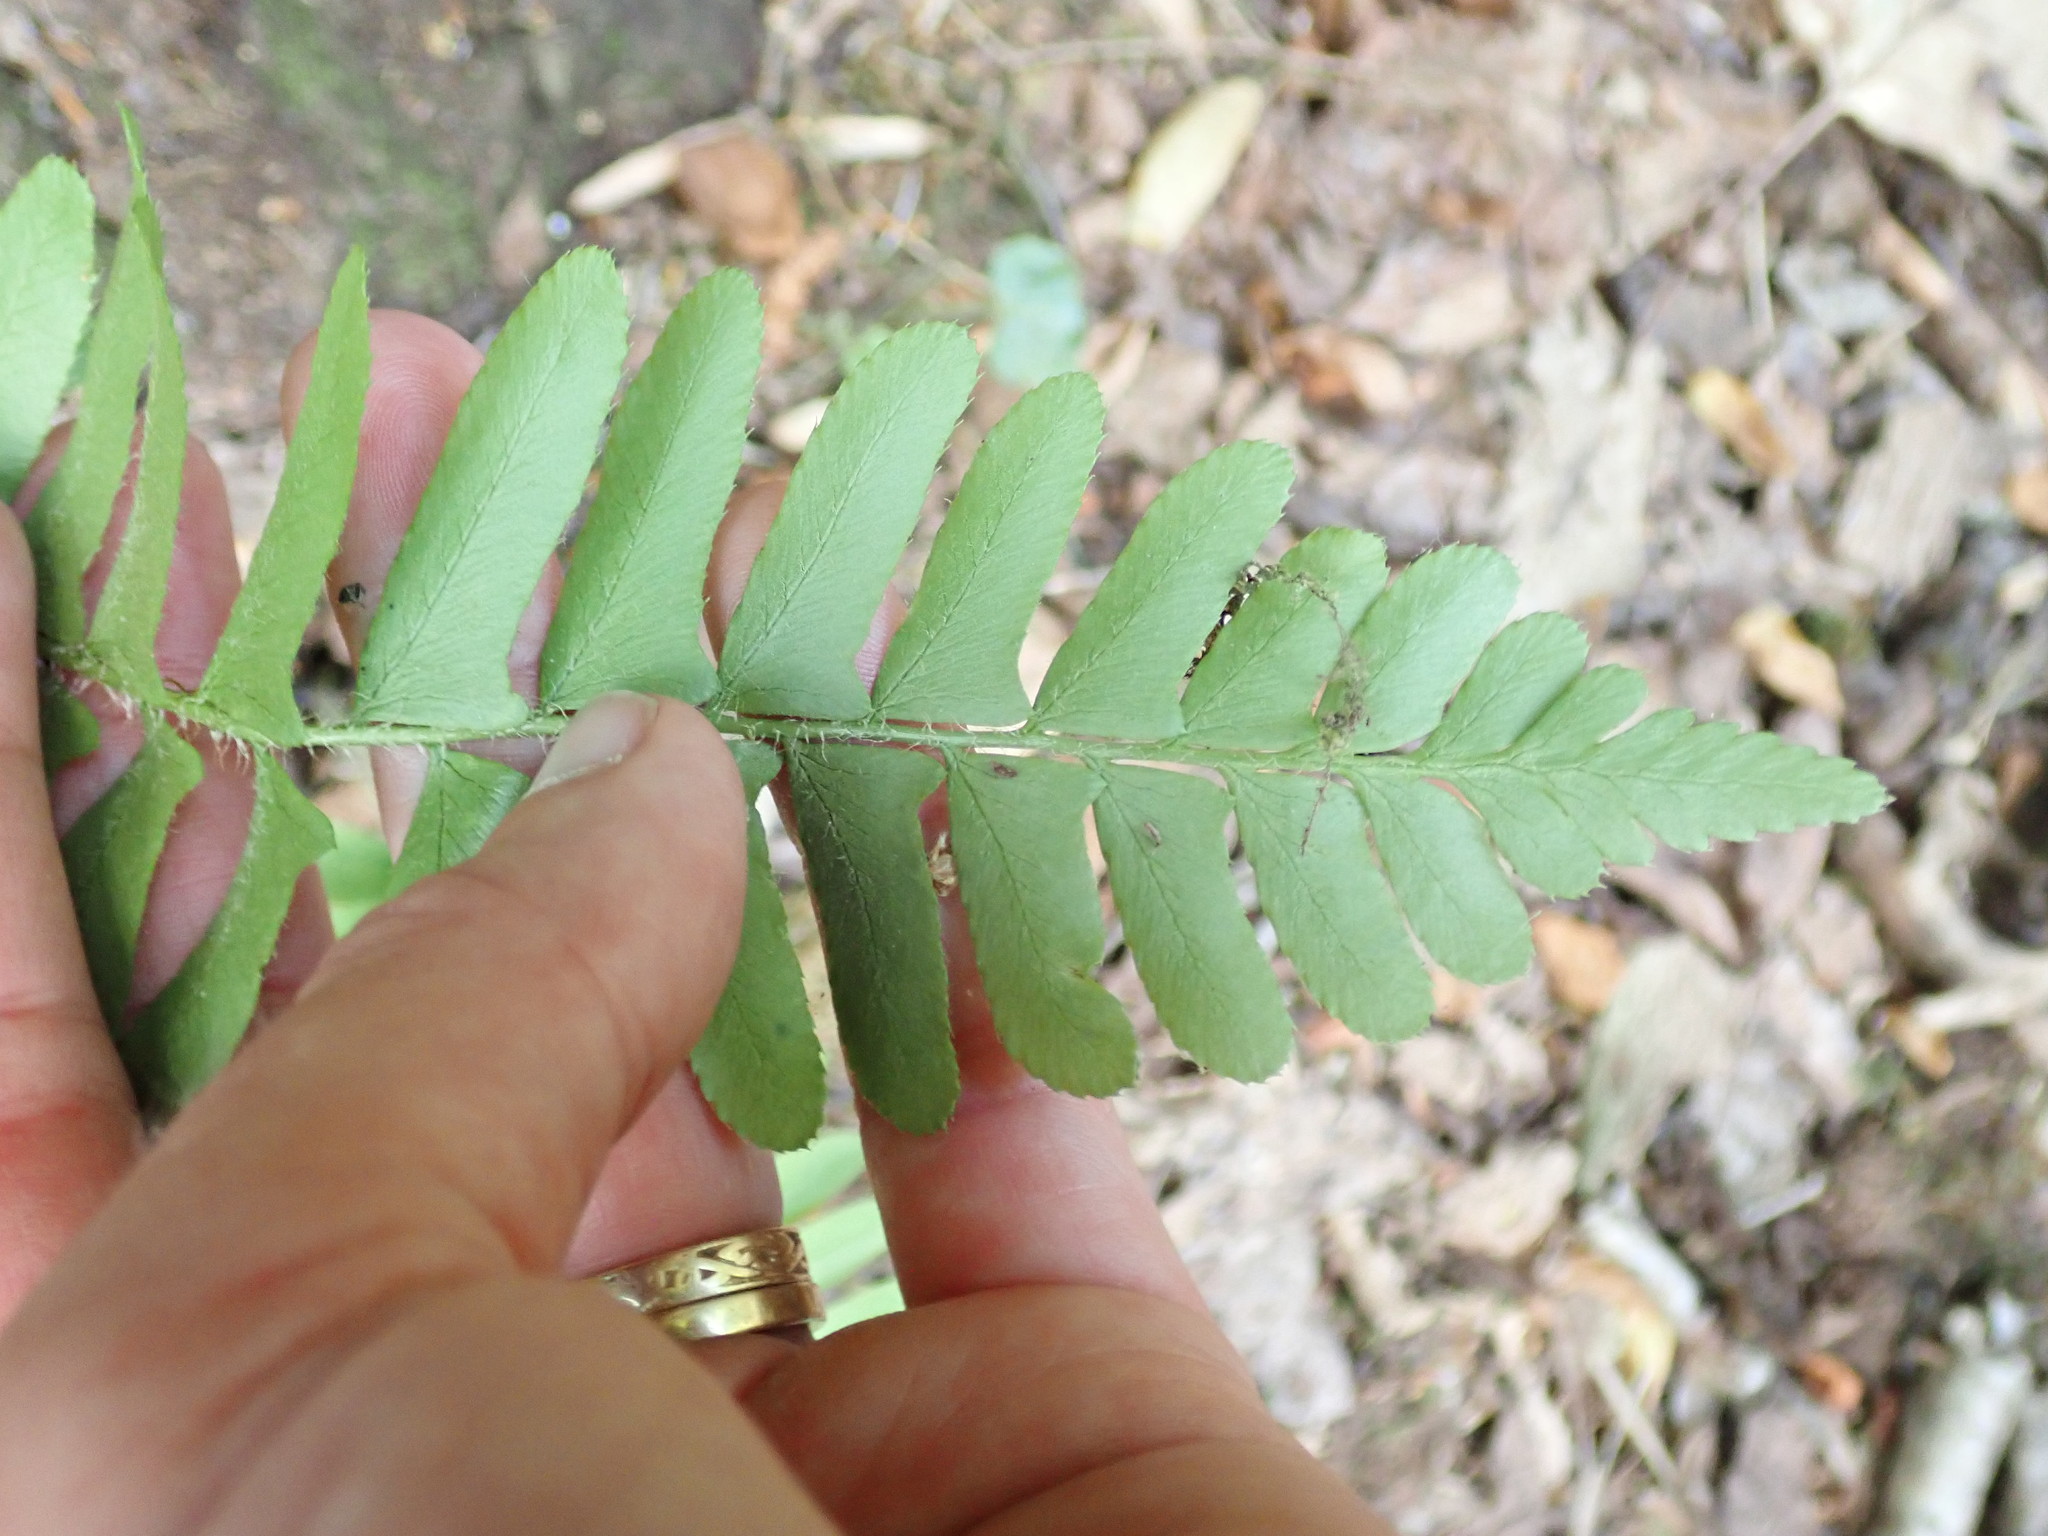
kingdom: Plantae
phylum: Tracheophyta
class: Polypodiopsida
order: Polypodiales
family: Dryopteridaceae
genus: Polystichum
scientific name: Polystichum acrostichoides
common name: Christmas fern
